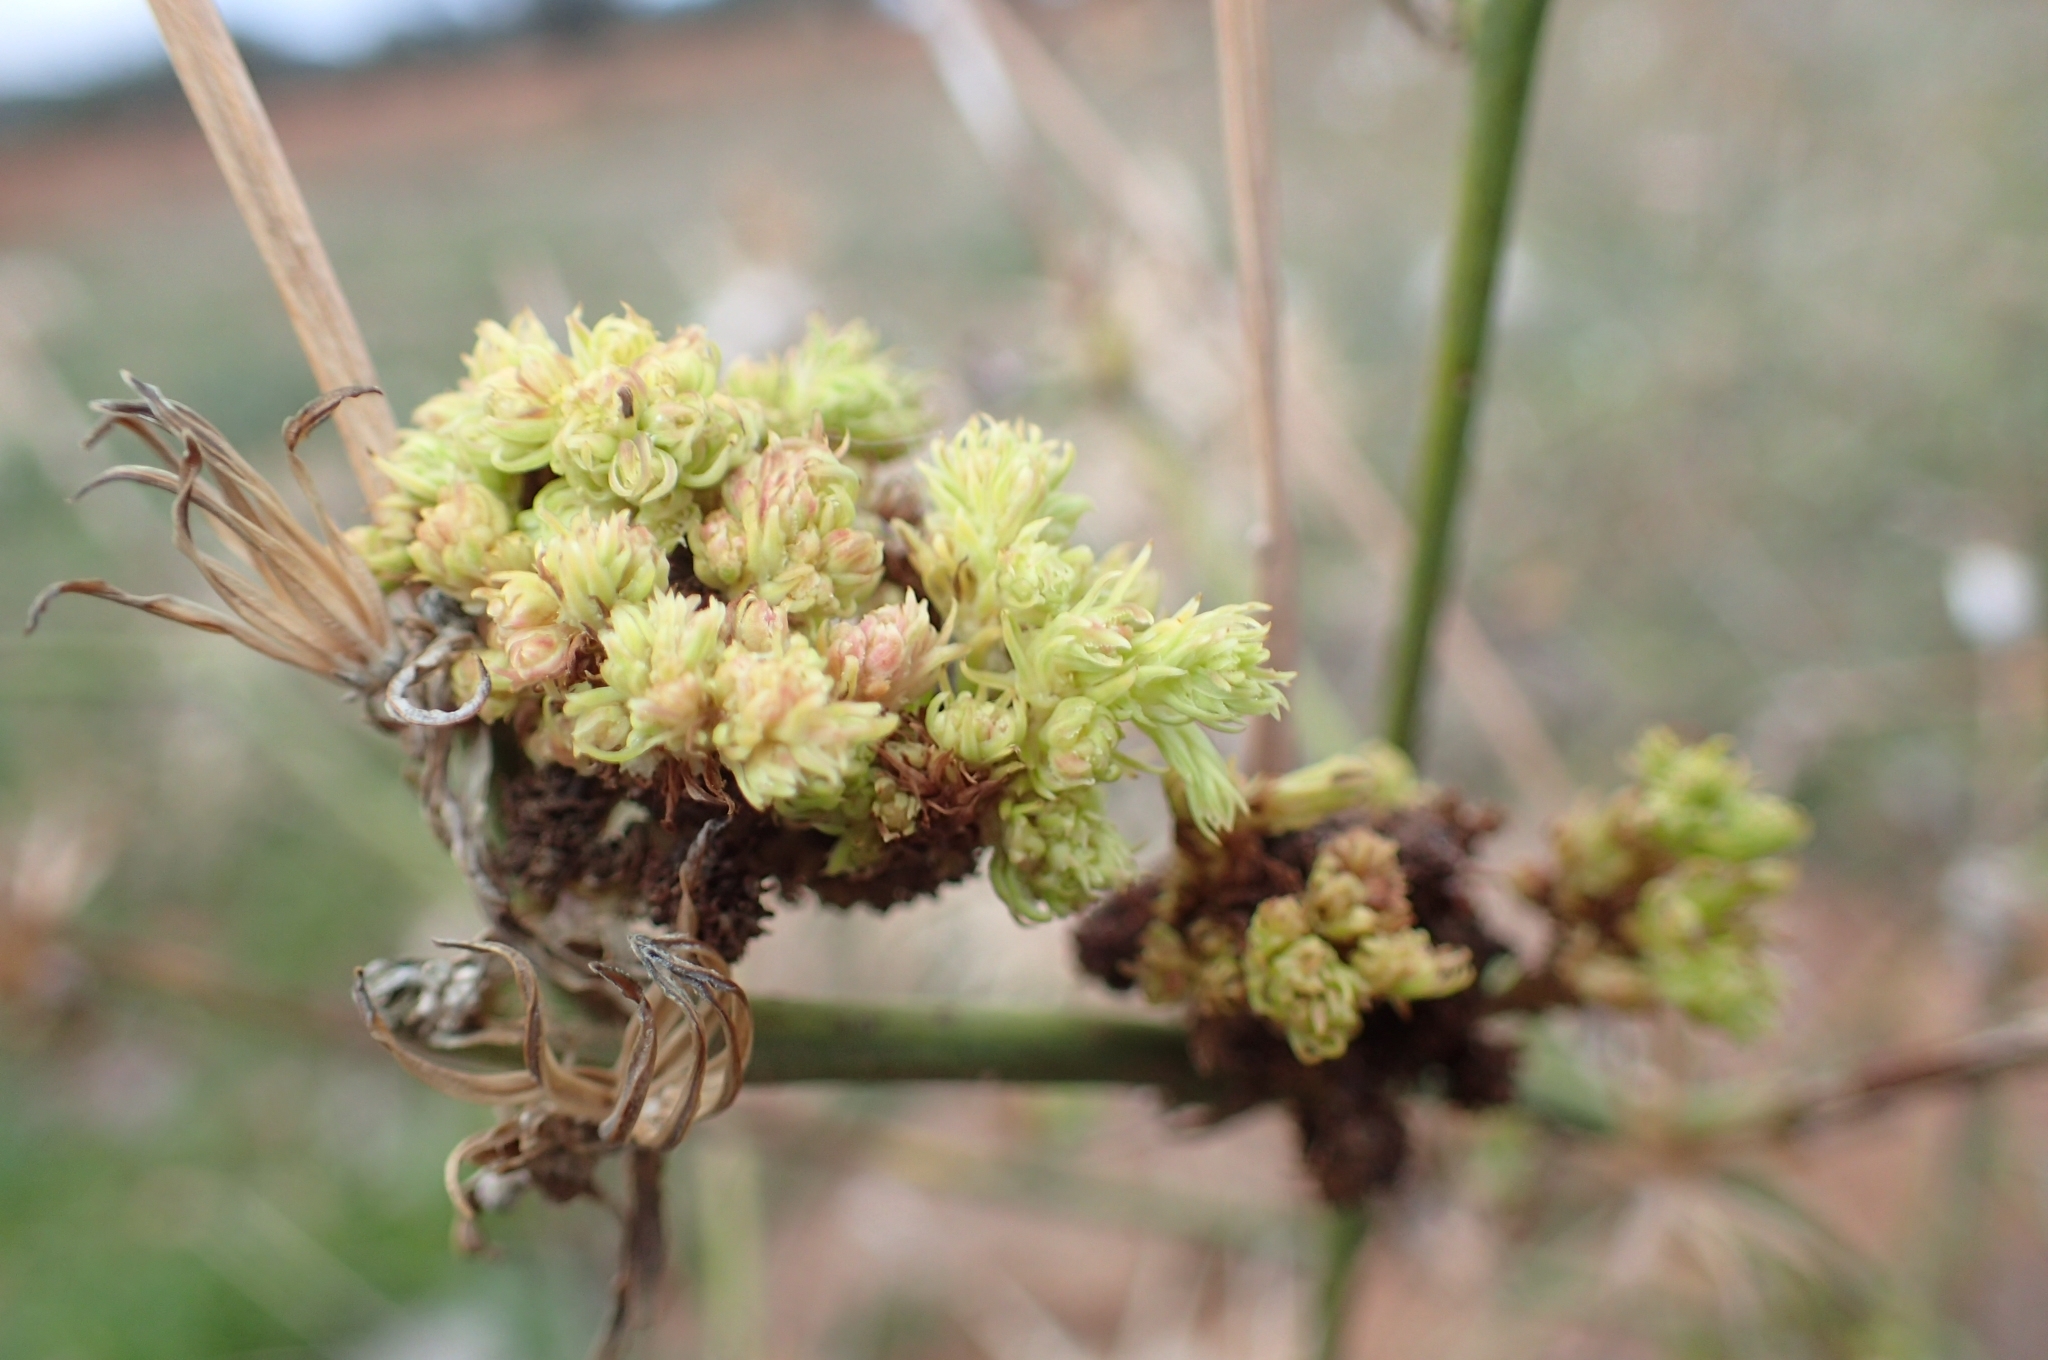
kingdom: Animalia
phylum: Arthropoda
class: Arachnida
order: Trombidiformes
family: Eriophyidae
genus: Aceria
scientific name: Aceria chondrillae
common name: Rush skeletonweed gall mite
